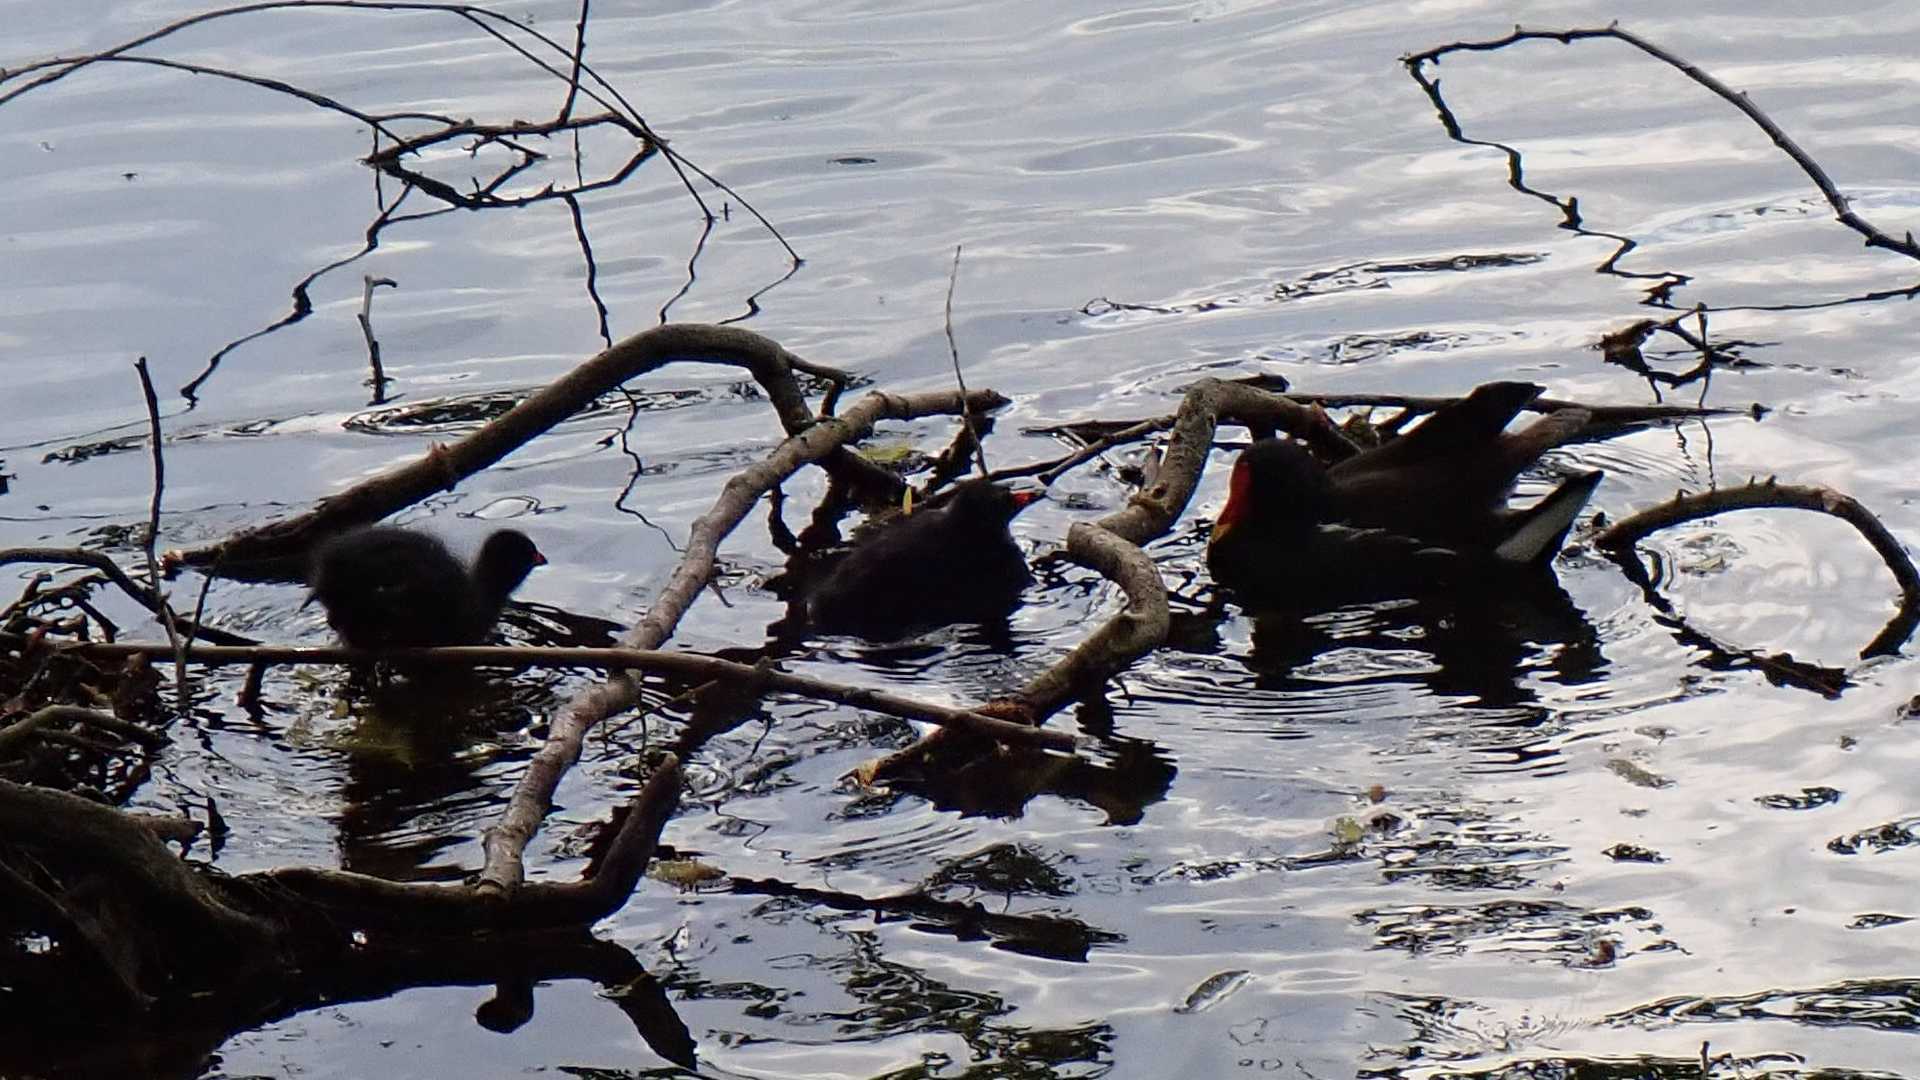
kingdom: Animalia
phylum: Chordata
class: Aves
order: Gruiformes
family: Rallidae
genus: Gallinula
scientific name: Gallinula chloropus
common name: Common moorhen
